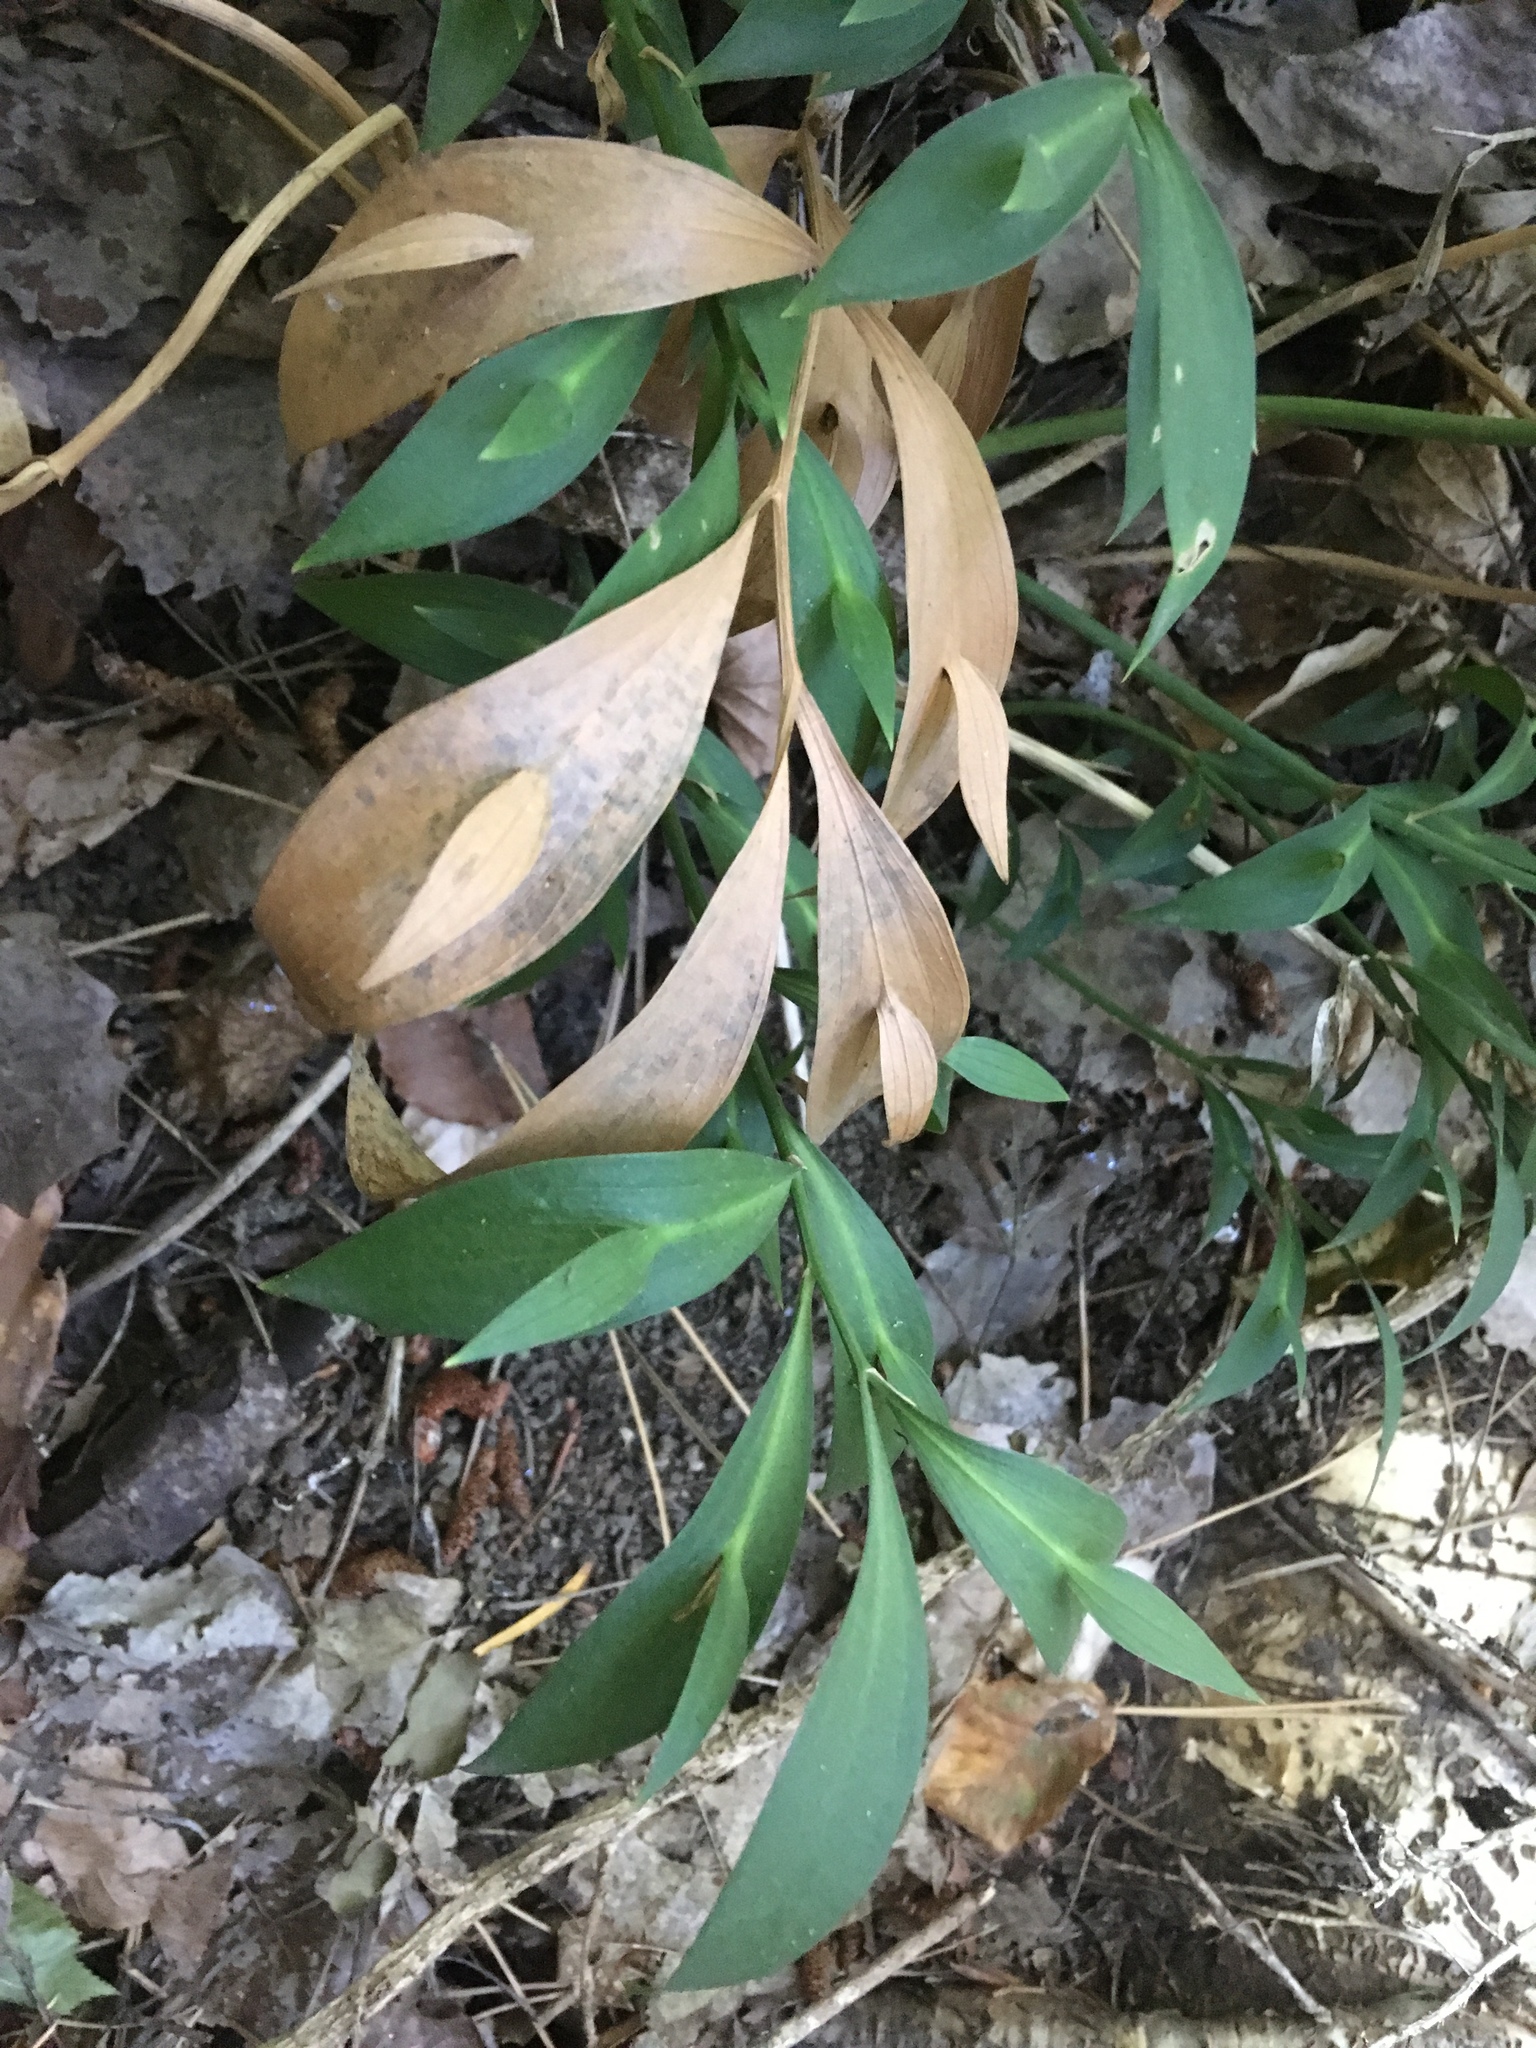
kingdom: Plantae
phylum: Tracheophyta
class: Liliopsida
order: Asparagales
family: Asparagaceae
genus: Ruscus
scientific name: Ruscus hypoglossum
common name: Spineless butcher's-broom
